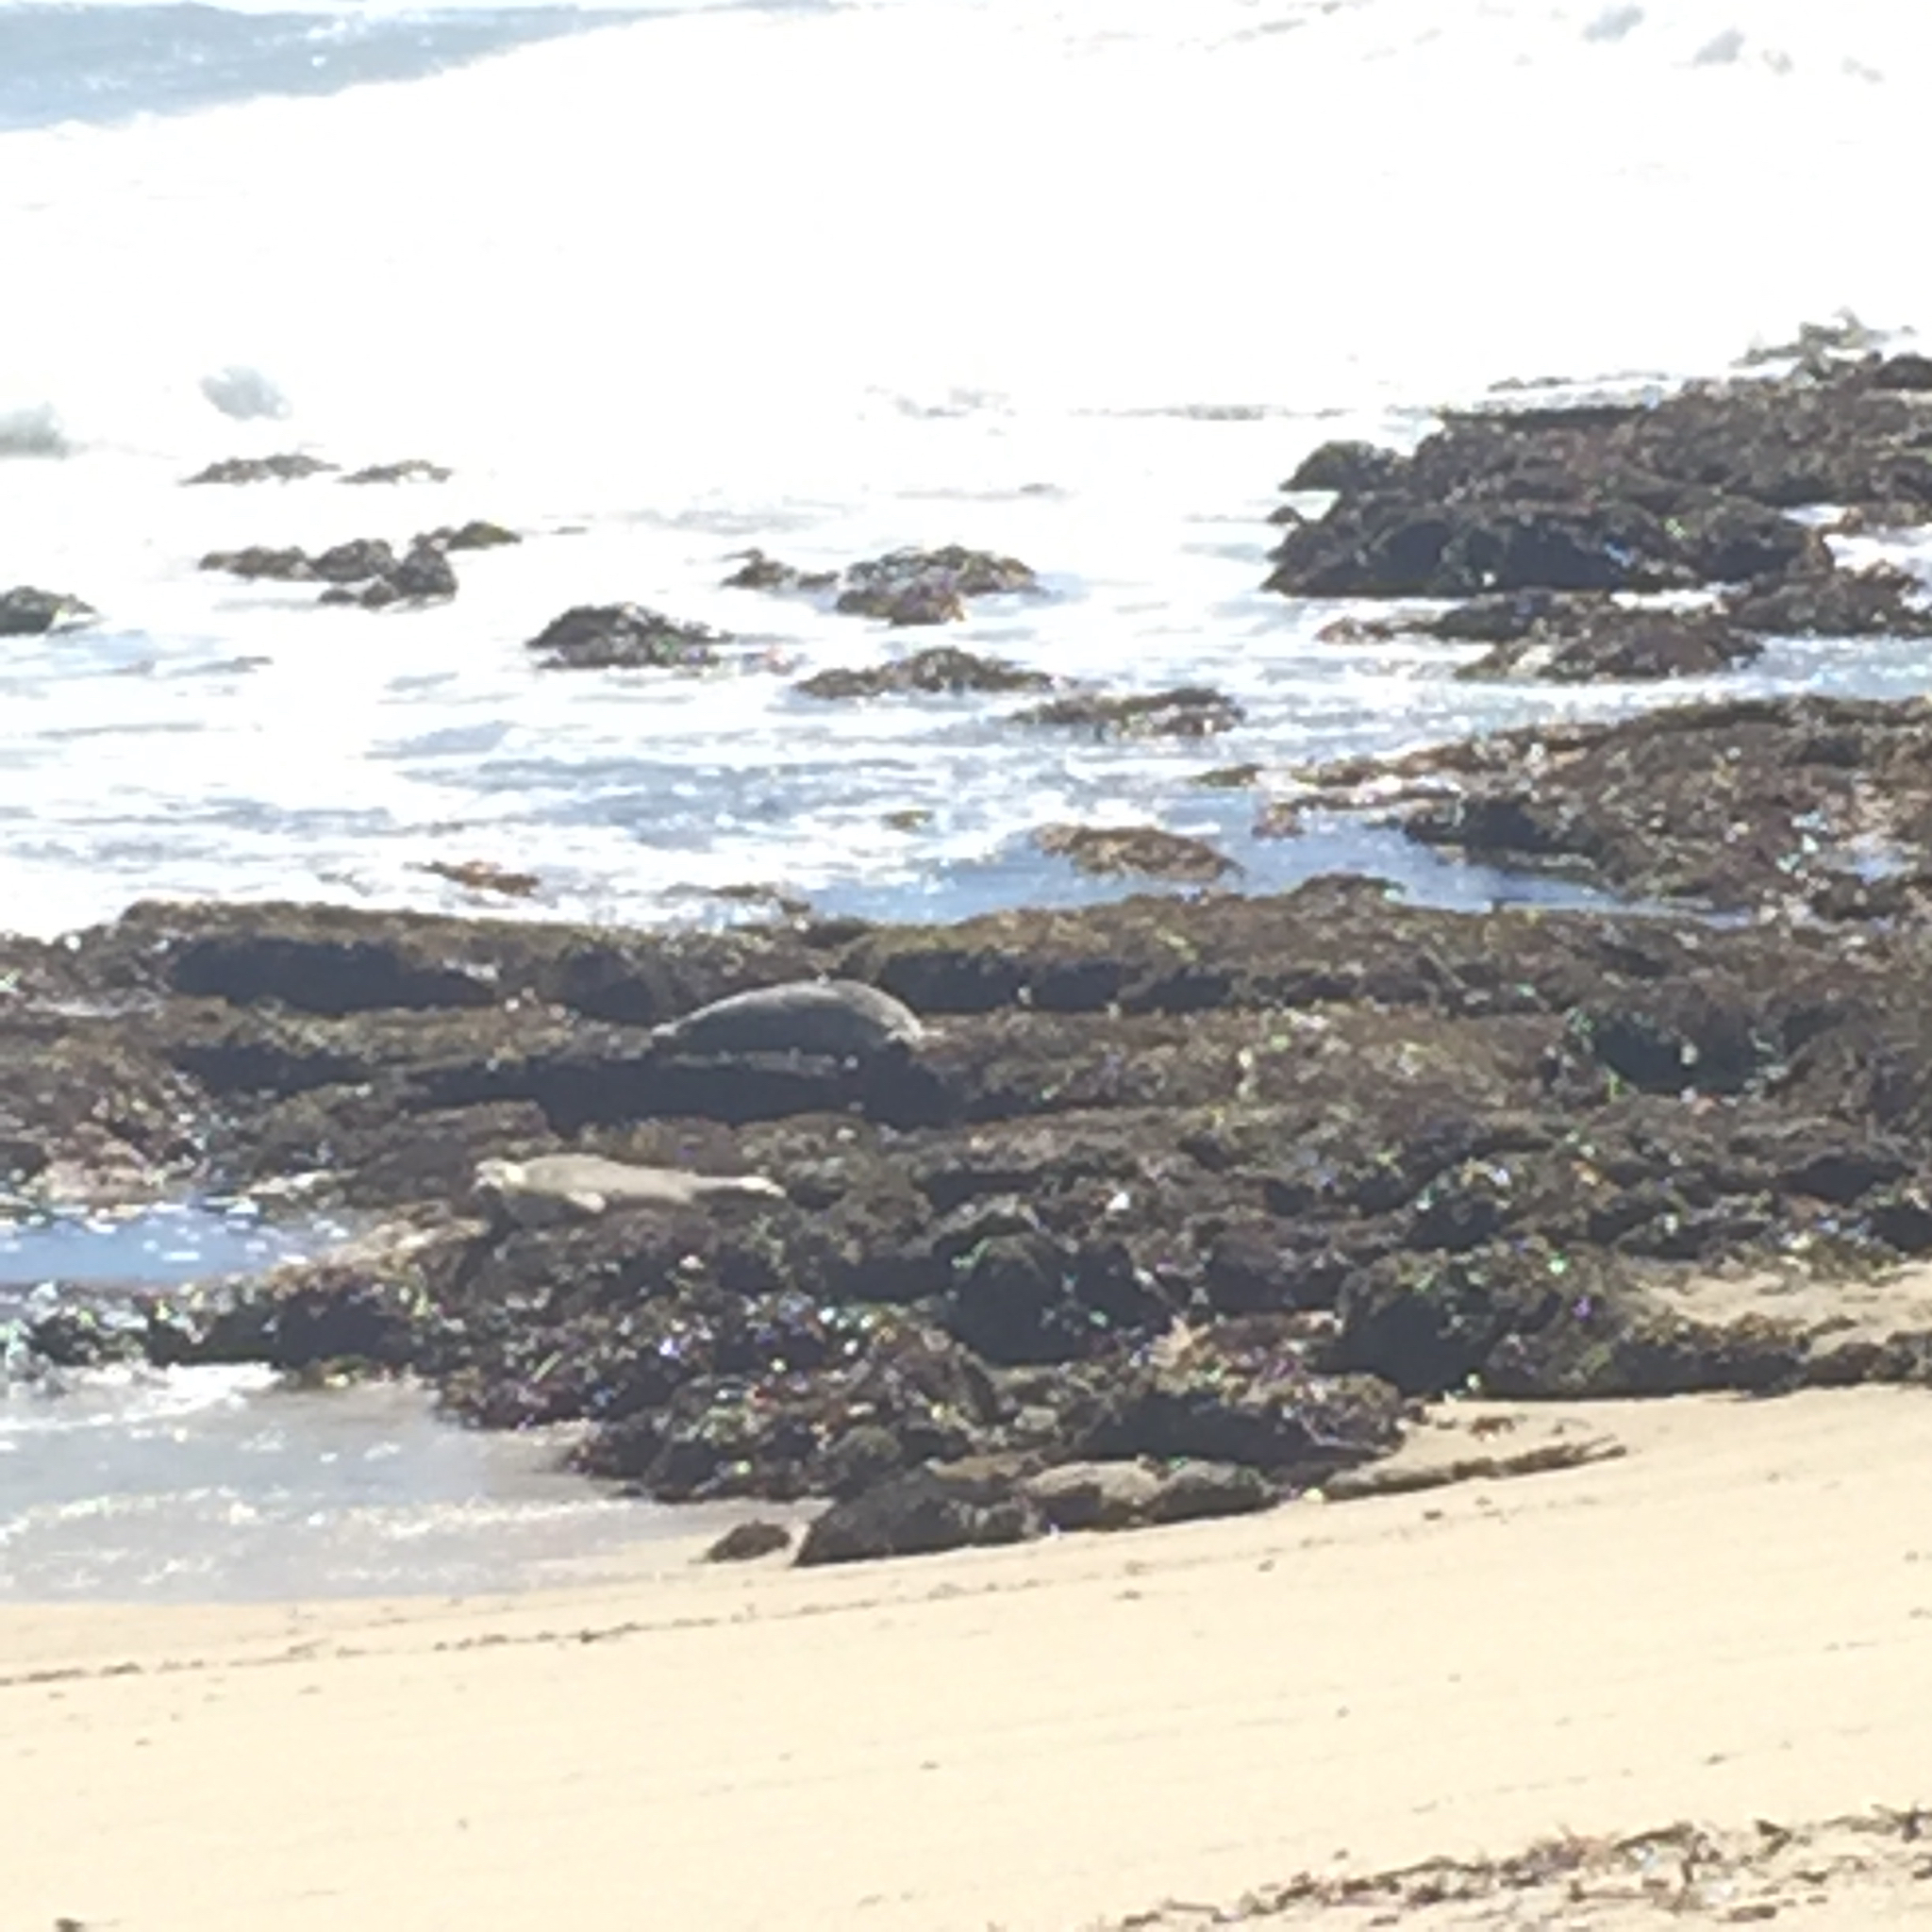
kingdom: Animalia
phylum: Chordata
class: Mammalia
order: Carnivora
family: Phocidae
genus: Phoca
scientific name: Phoca vitulina
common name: Harbor seal
